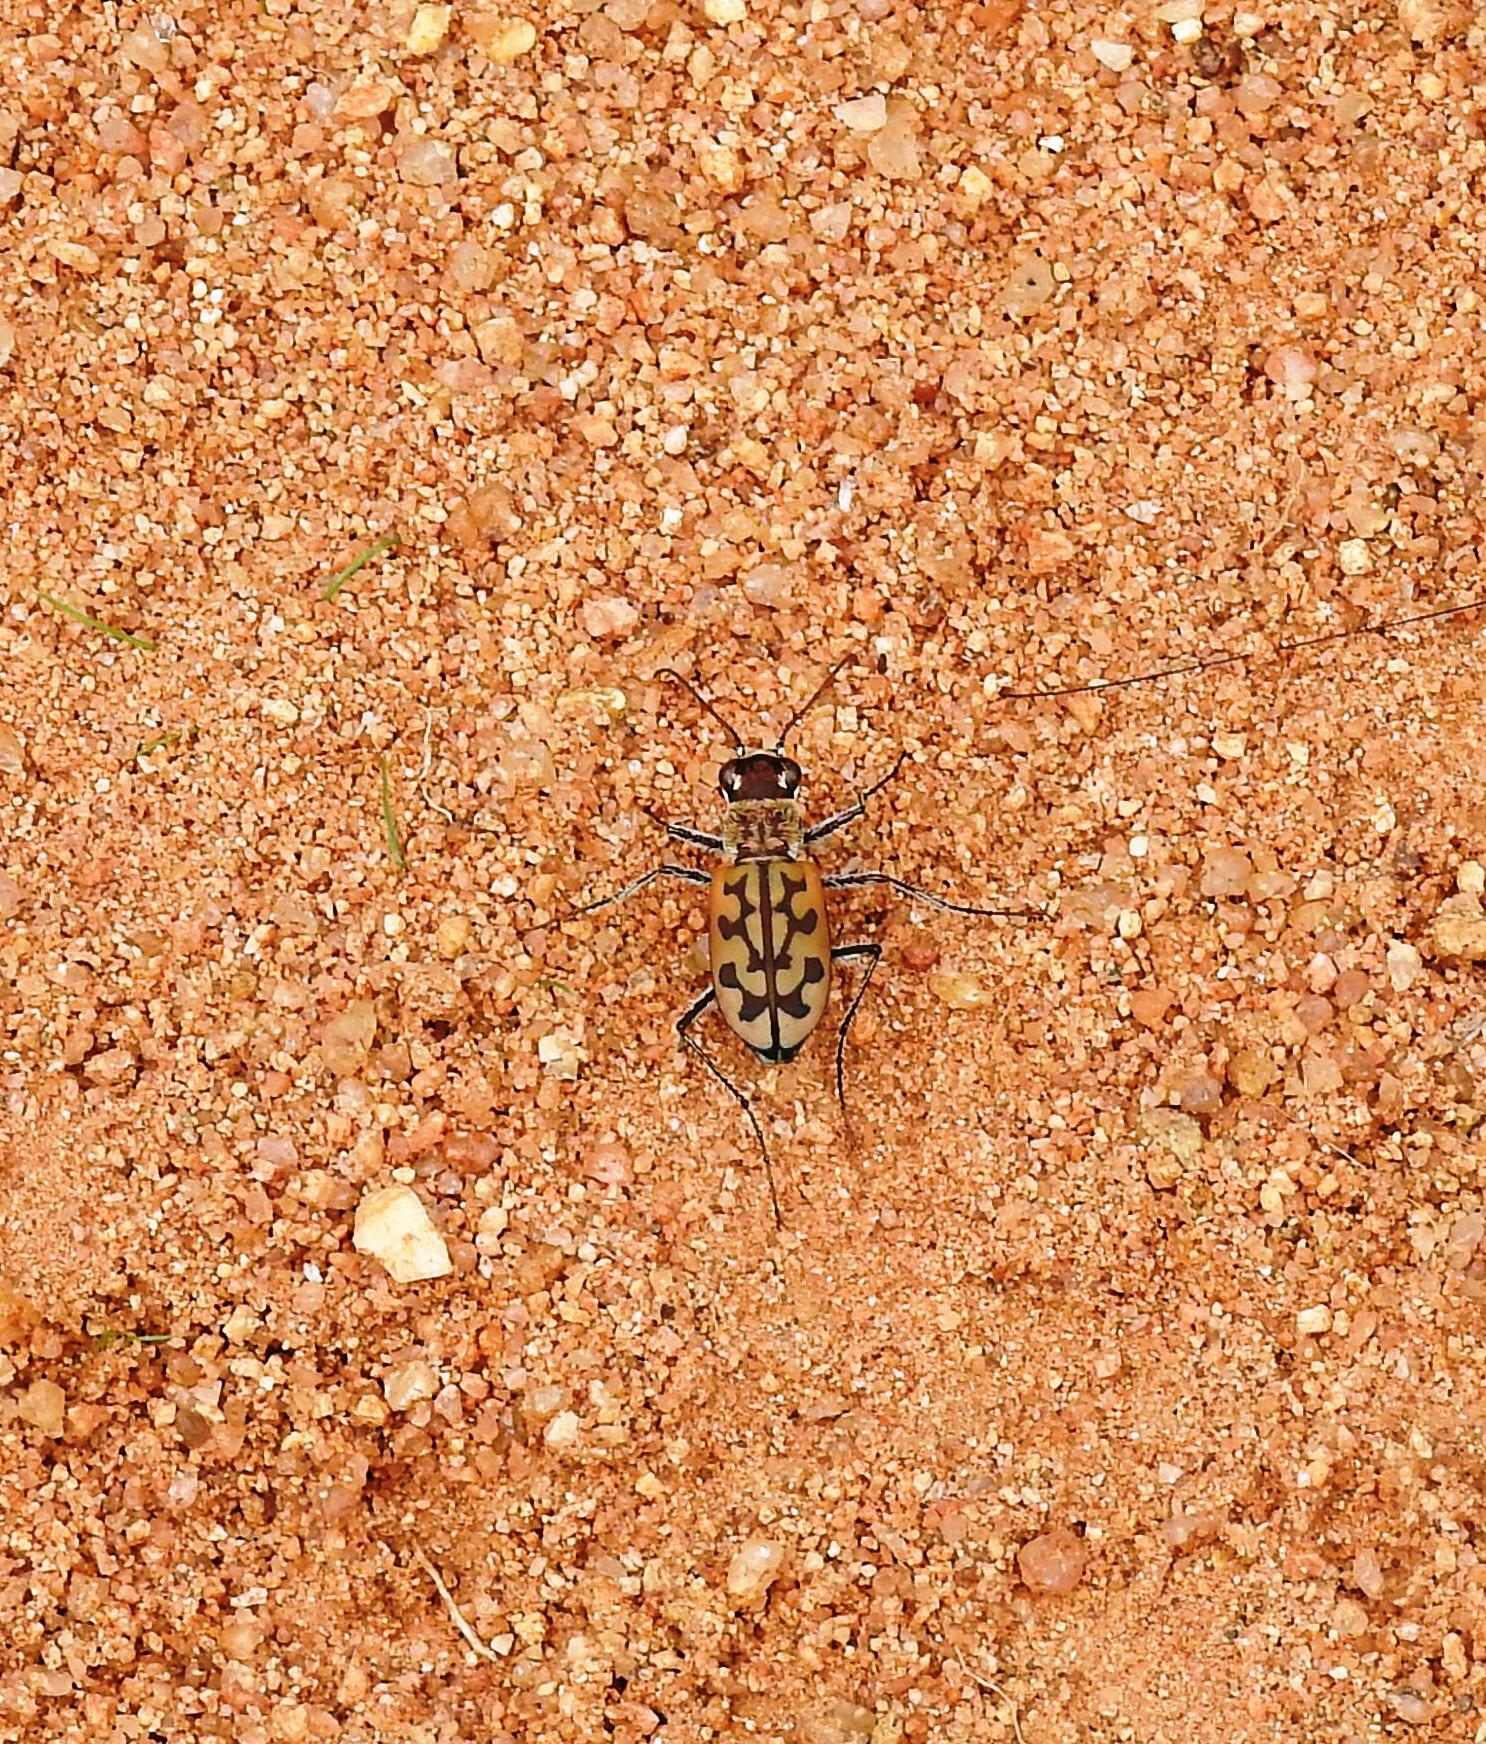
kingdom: Animalia
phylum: Arthropoda
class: Insecta
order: Coleoptera
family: Carabidae
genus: Lophyra
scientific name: Lophyra catena
